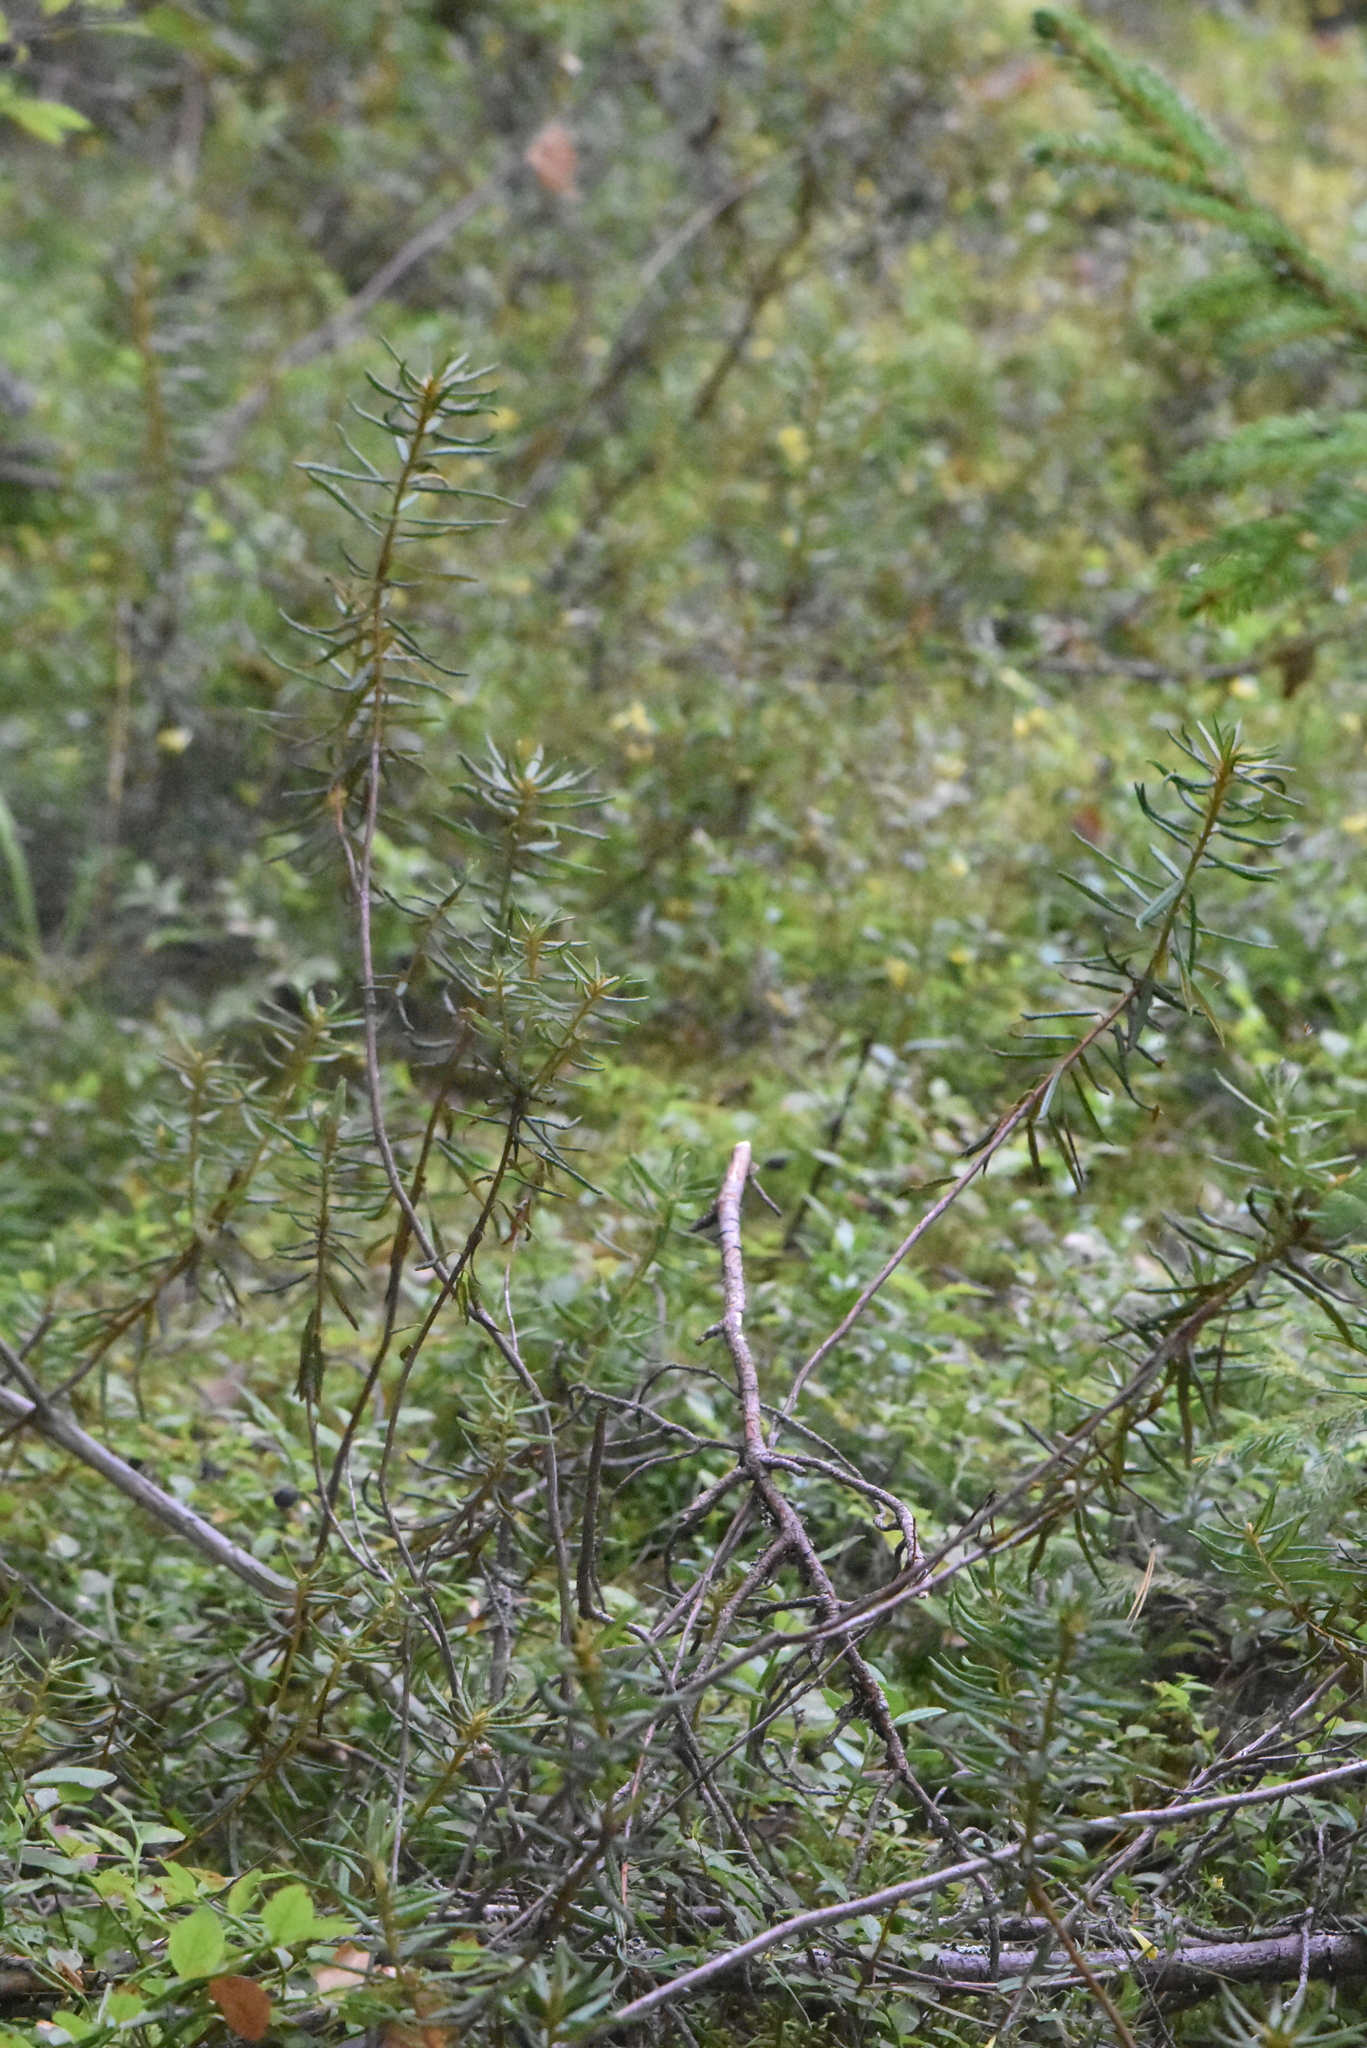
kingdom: Plantae
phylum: Tracheophyta
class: Magnoliopsida
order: Ericales
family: Ericaceae
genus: Rhododendron
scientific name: Rhododendron tomentosum
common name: Marsh labrador tea
